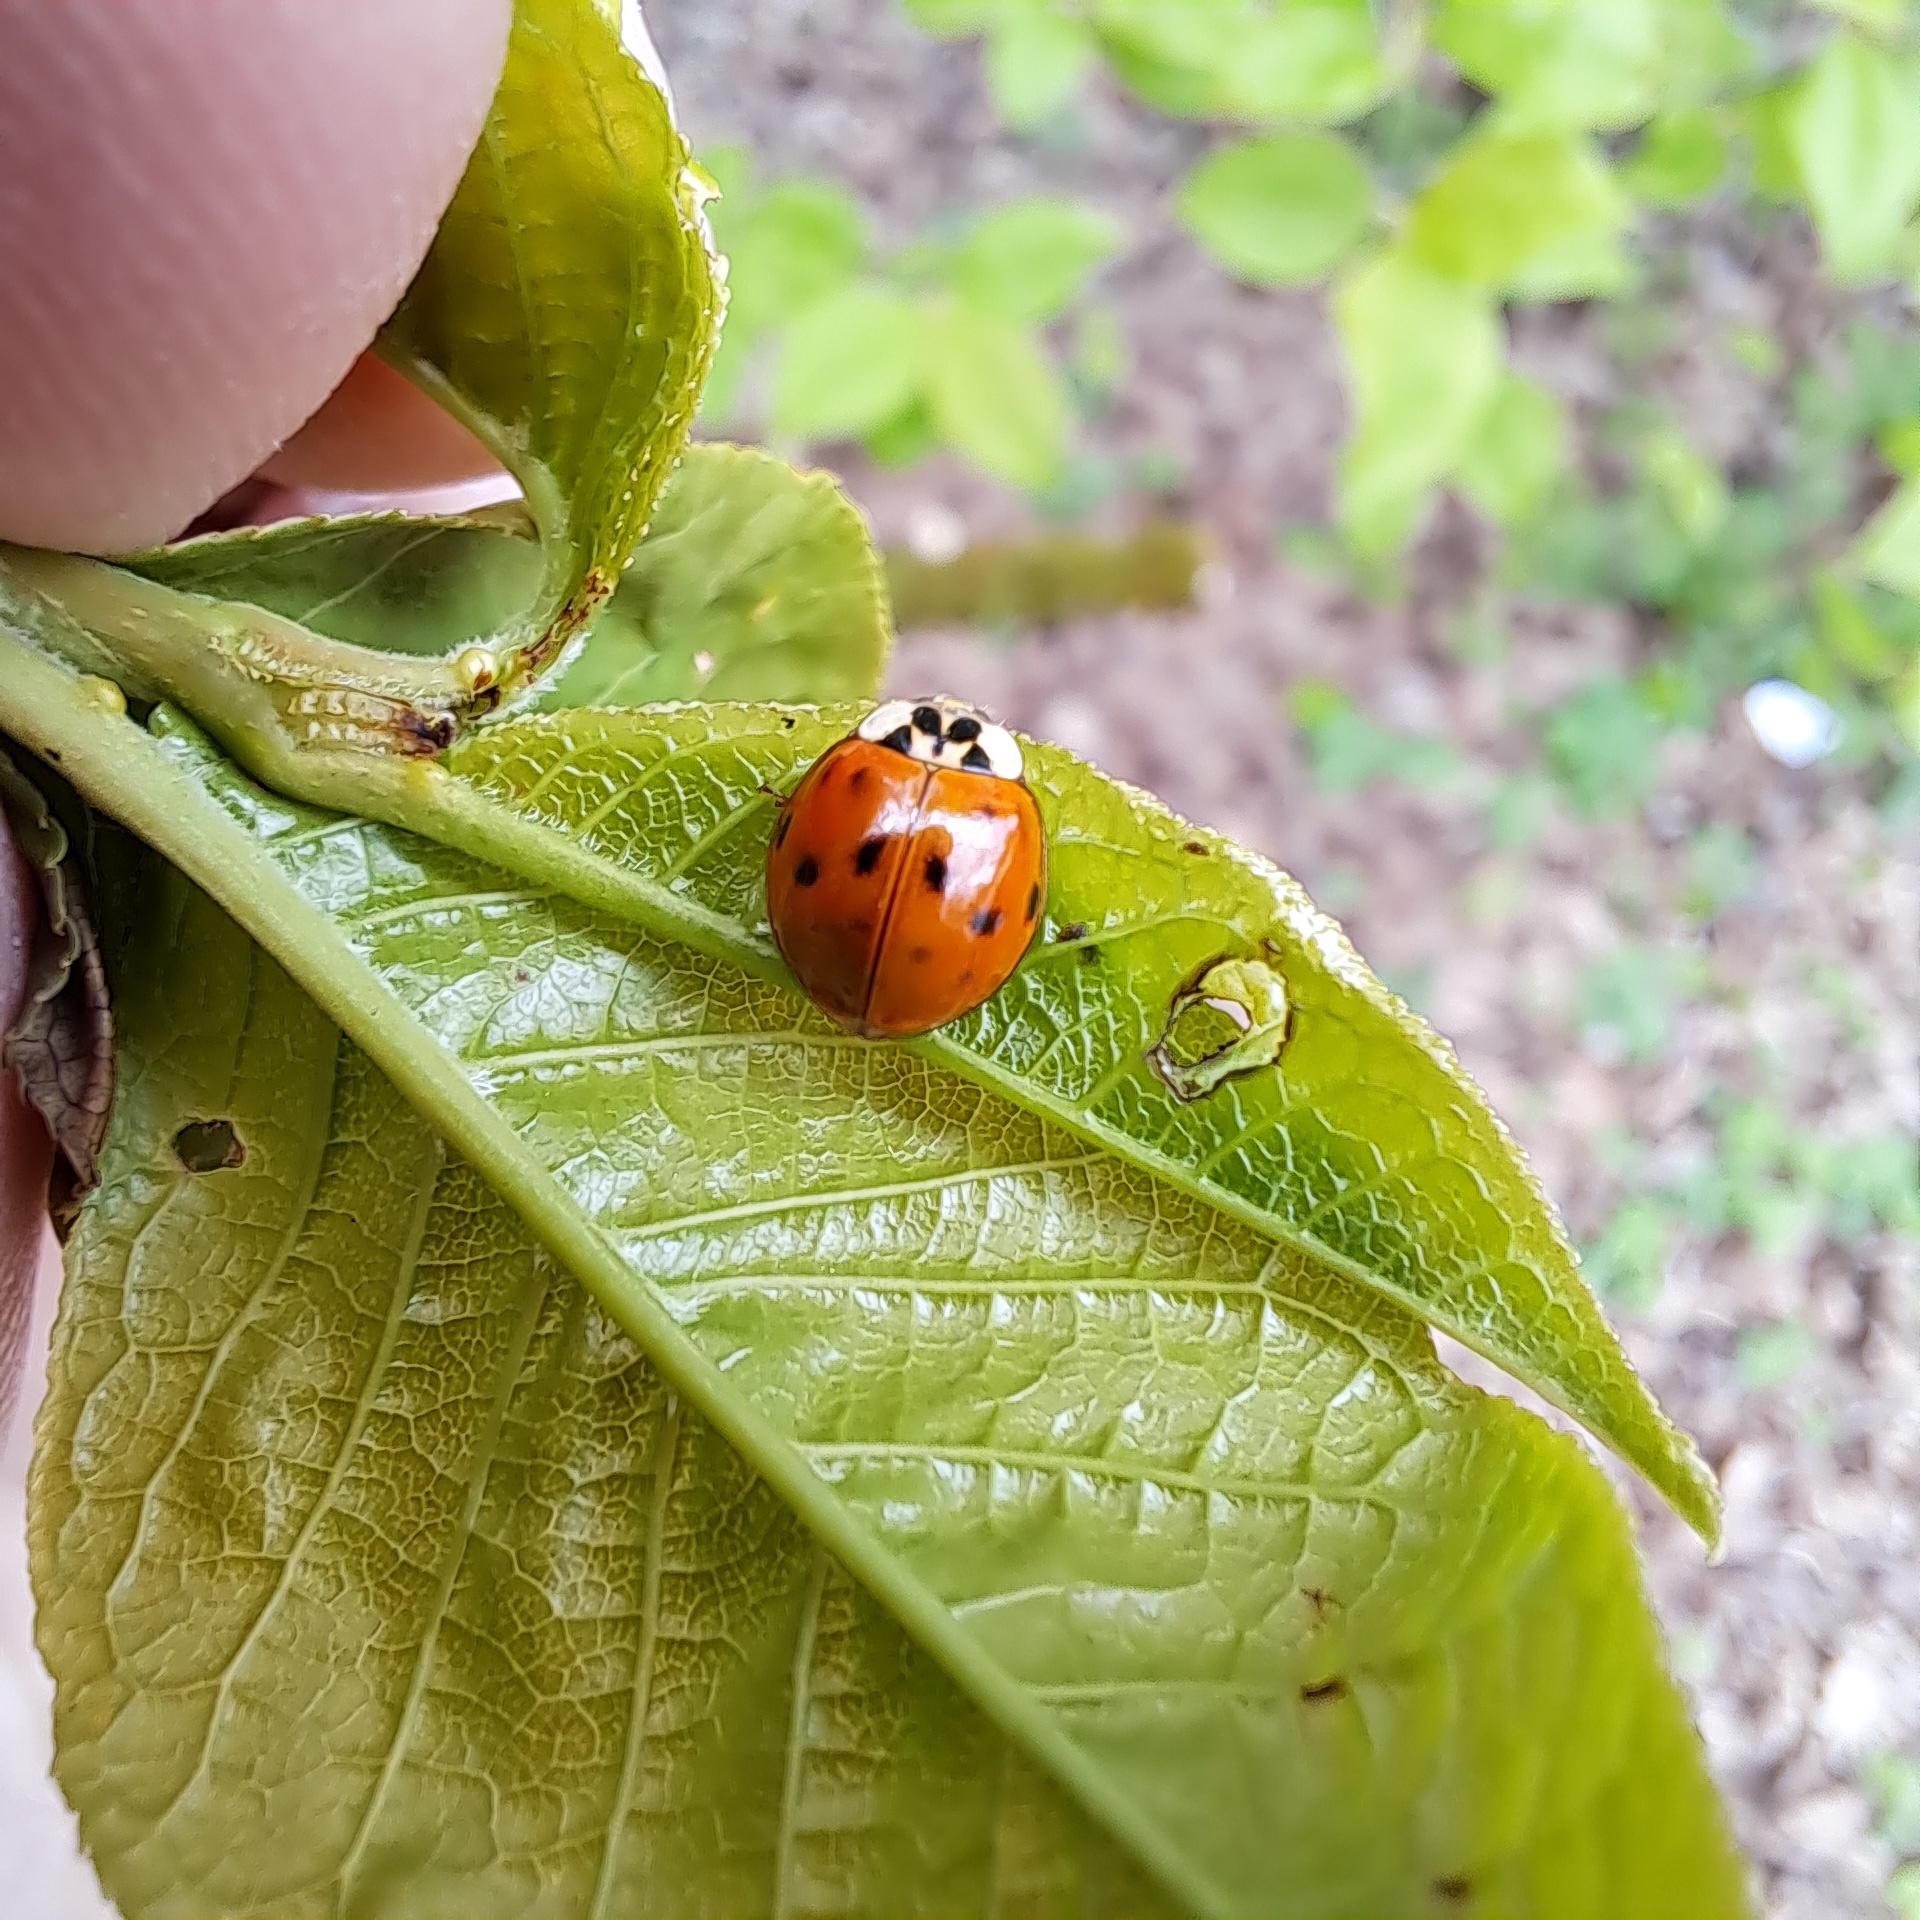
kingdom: Animalia
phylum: Arthropoda
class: Insecta
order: Coleoptera
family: Coccinellidae
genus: Harmonia
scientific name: Harmonia axyridis
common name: Harlequin ladybird
